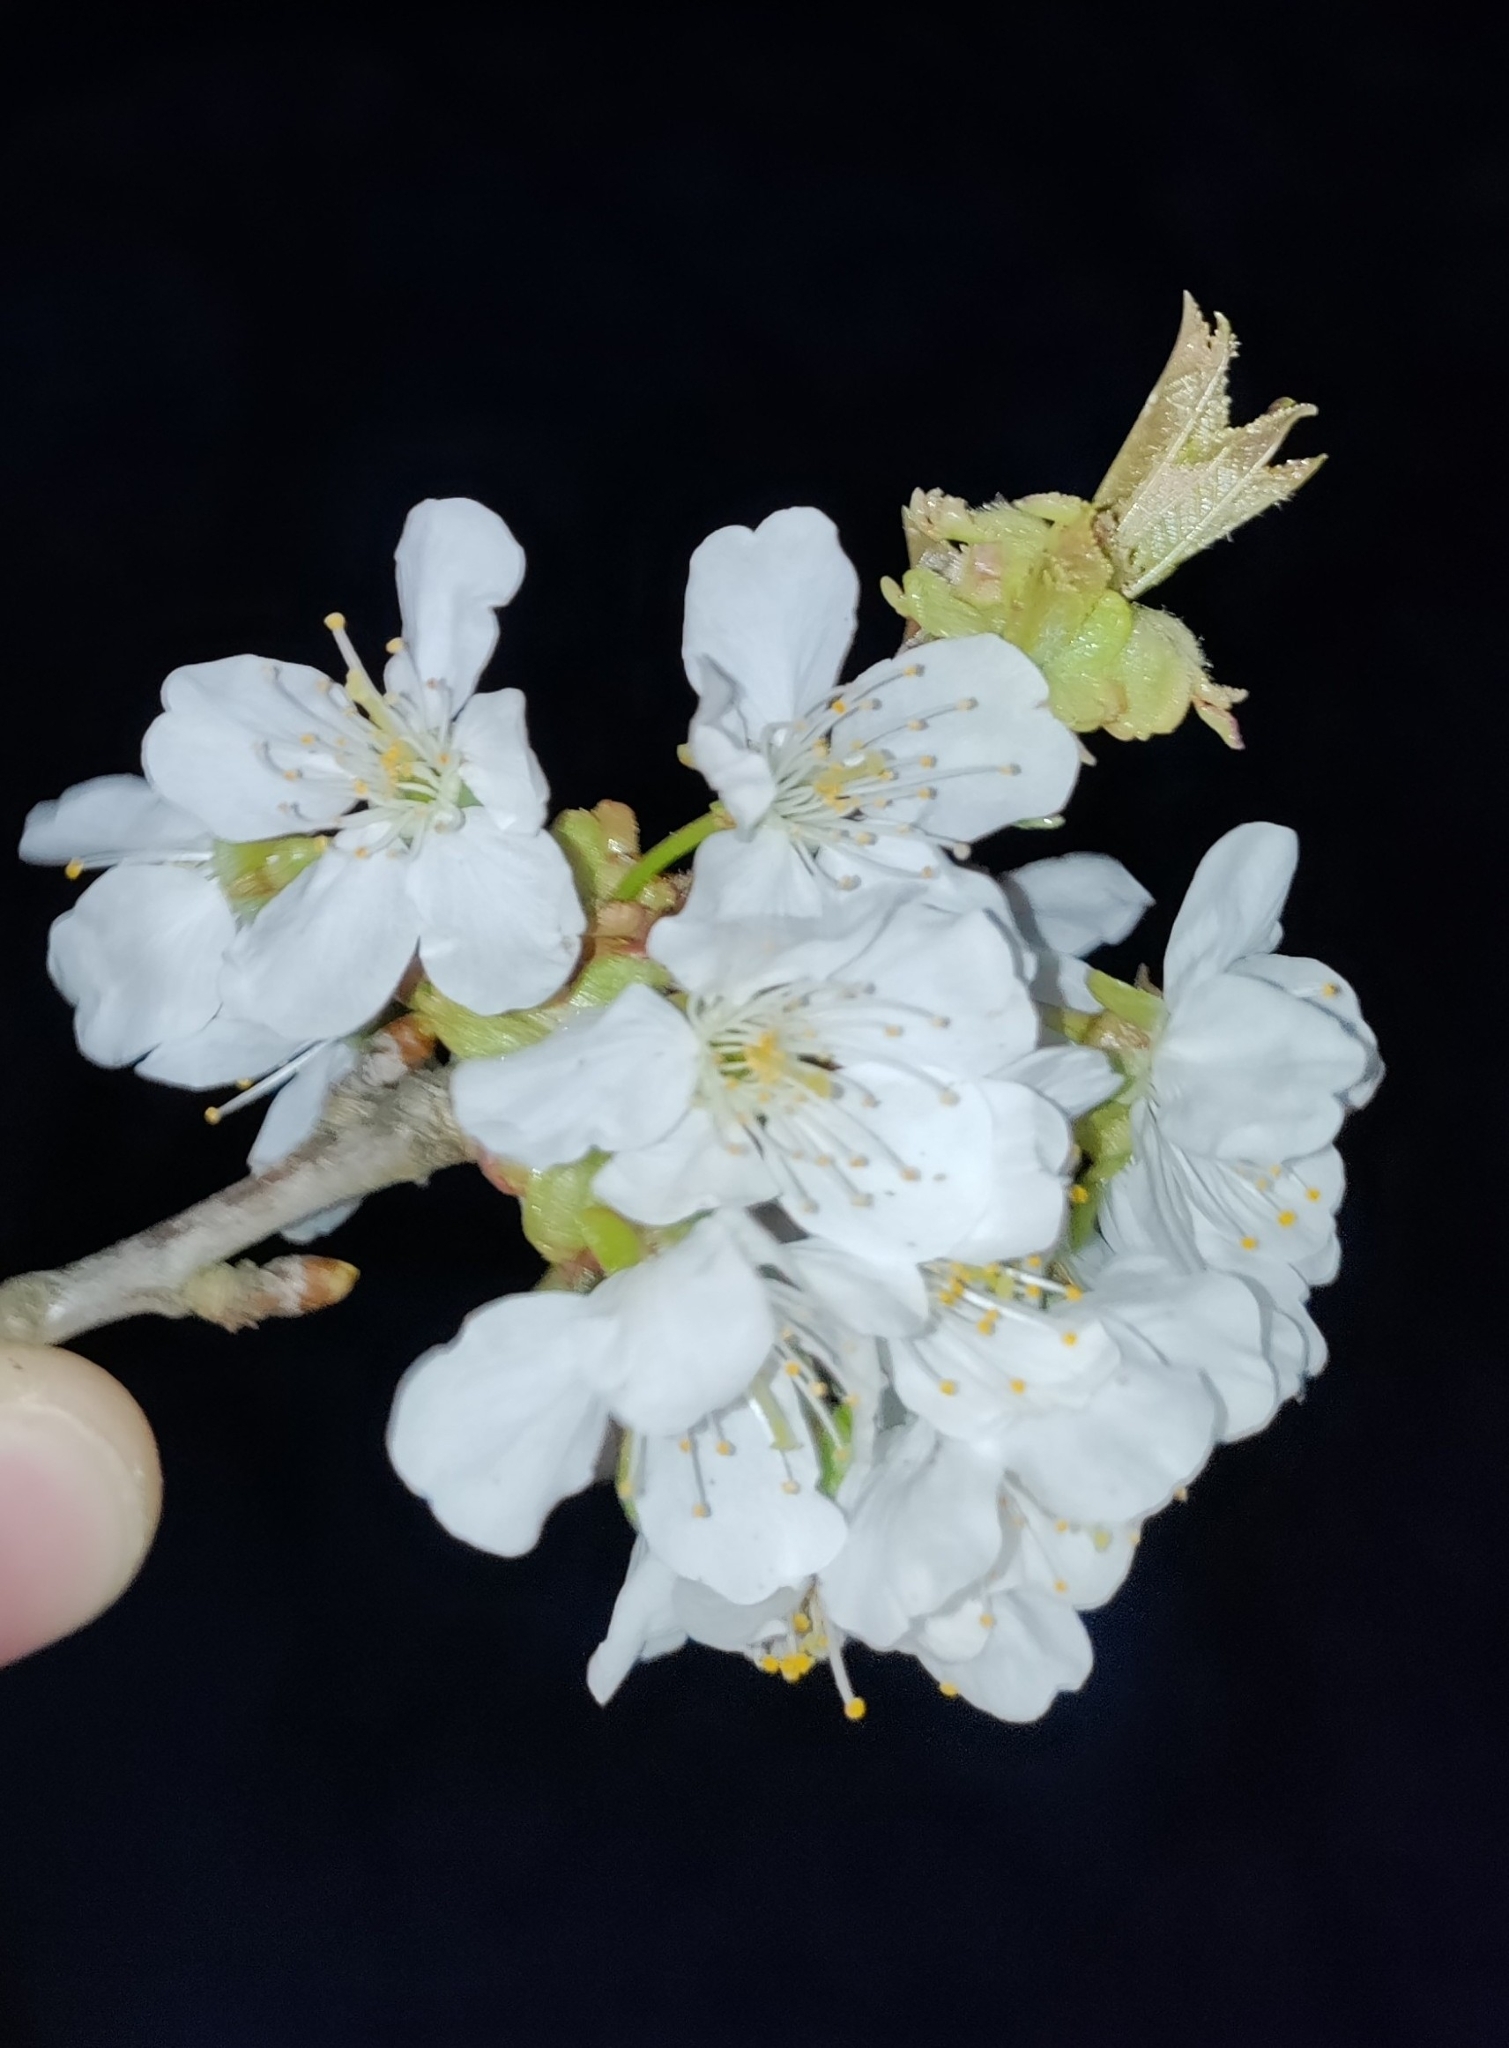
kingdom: Plantae
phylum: Tracheophyta
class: Magnoliopsida
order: Rosales
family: Rosaceae
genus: Prunus
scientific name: Prunus avium
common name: Sweet cherry
